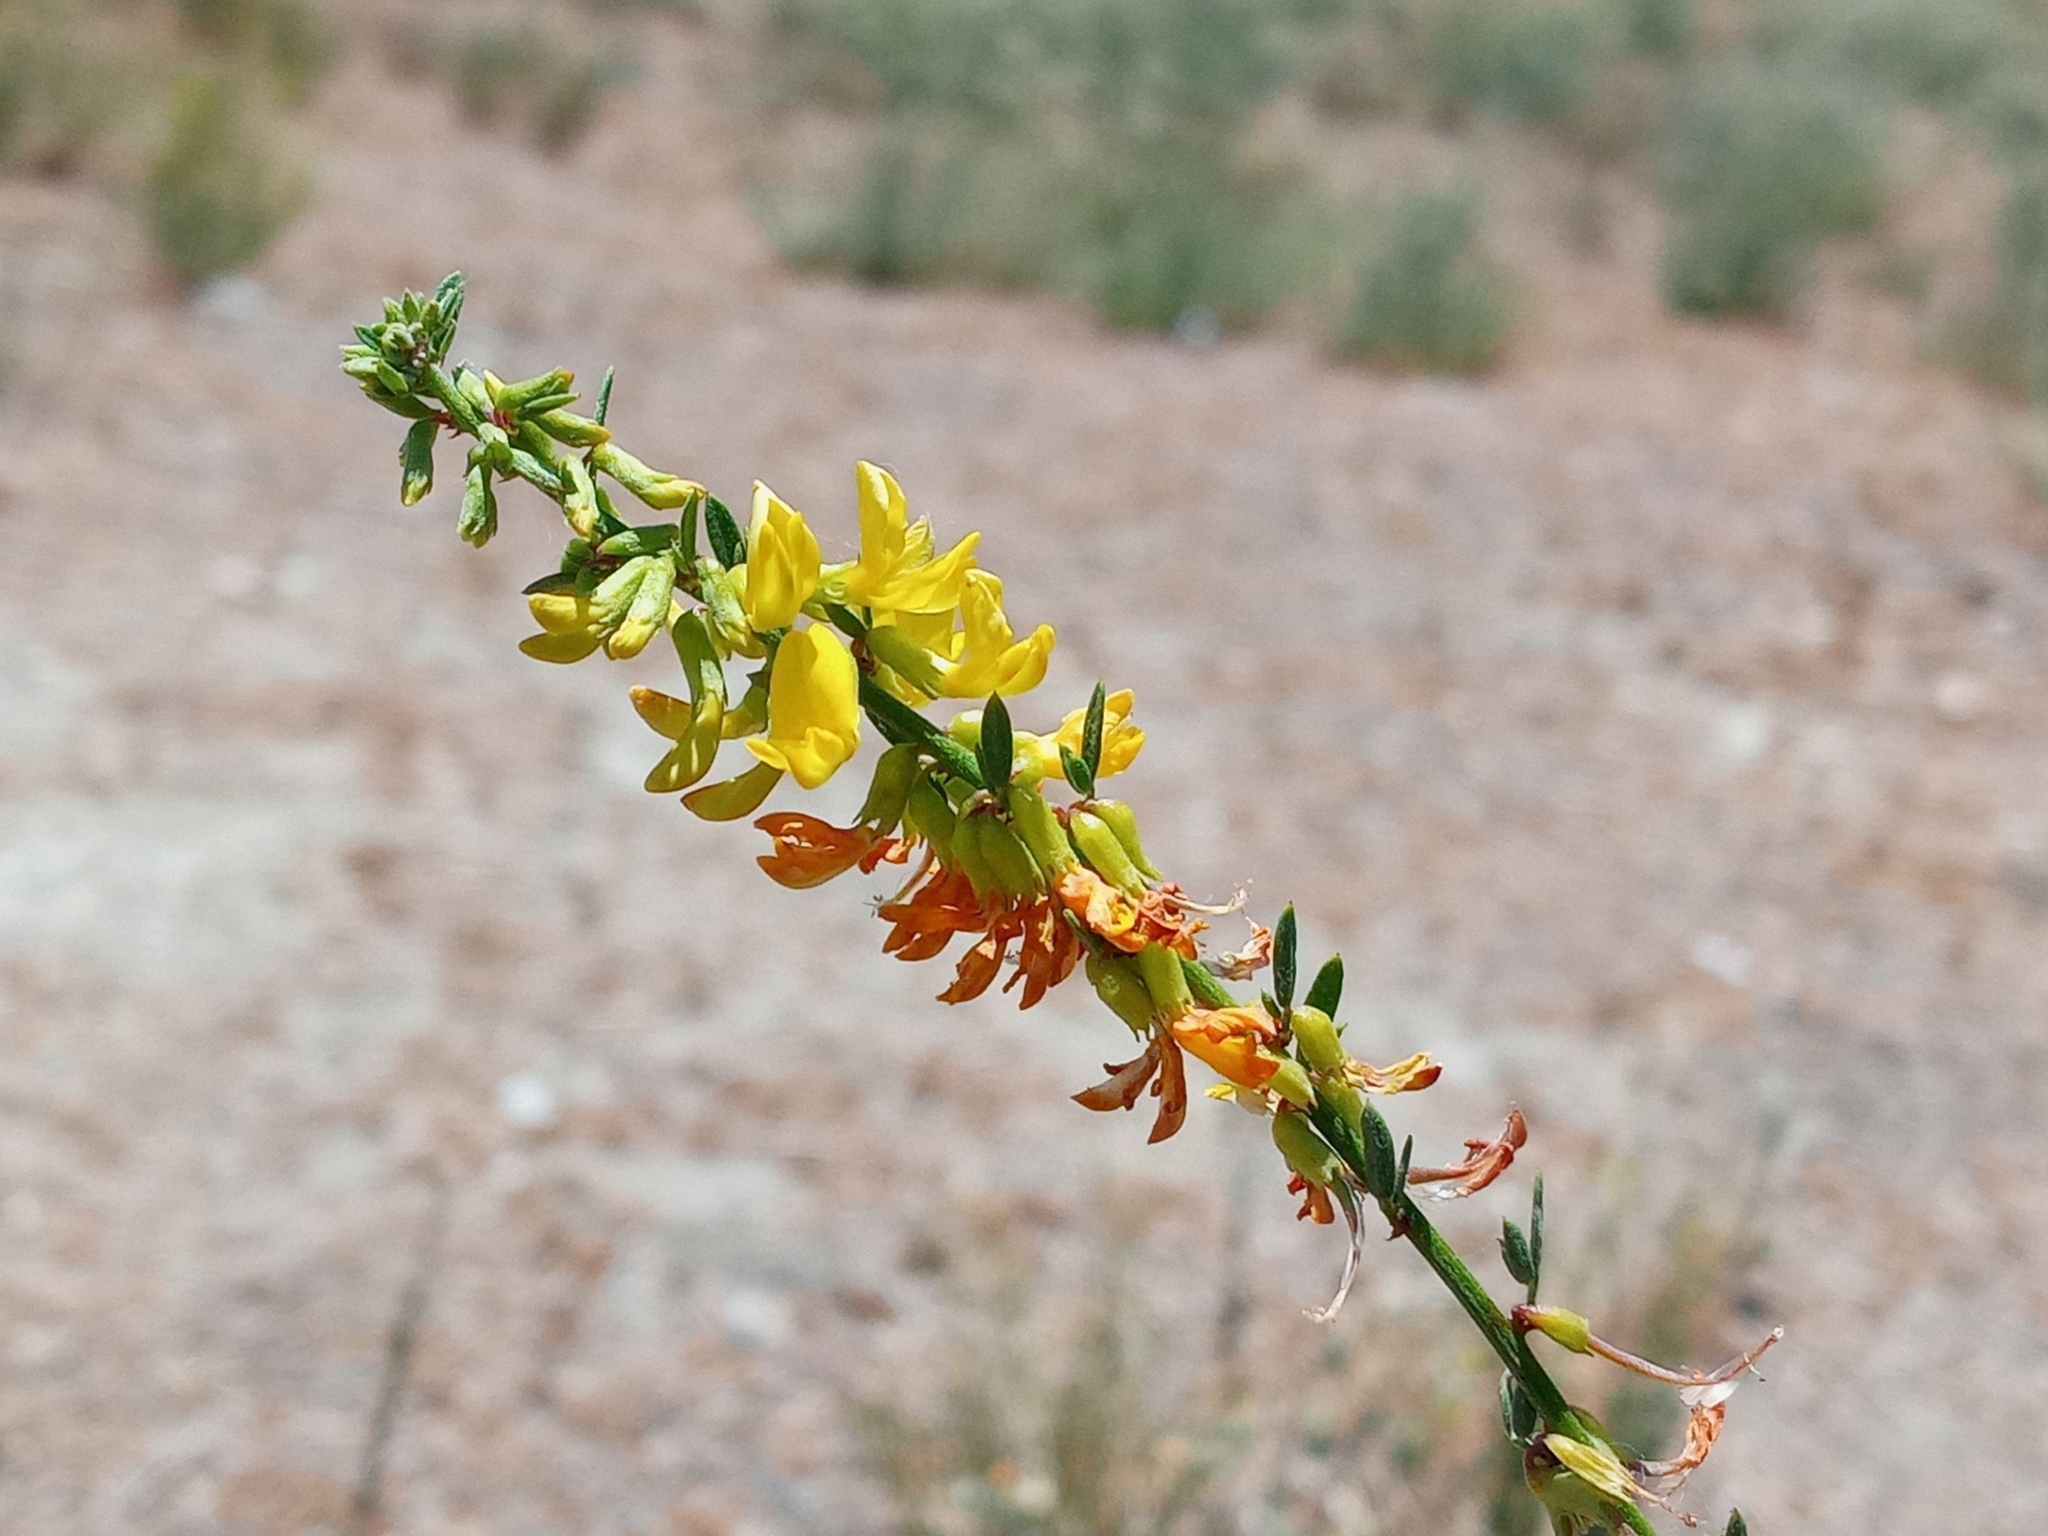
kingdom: Plantae
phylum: Tracheophyta
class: Magnoliopsida
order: Fabales
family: Fabaceae
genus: Acmispon
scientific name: Acmispon glaber
